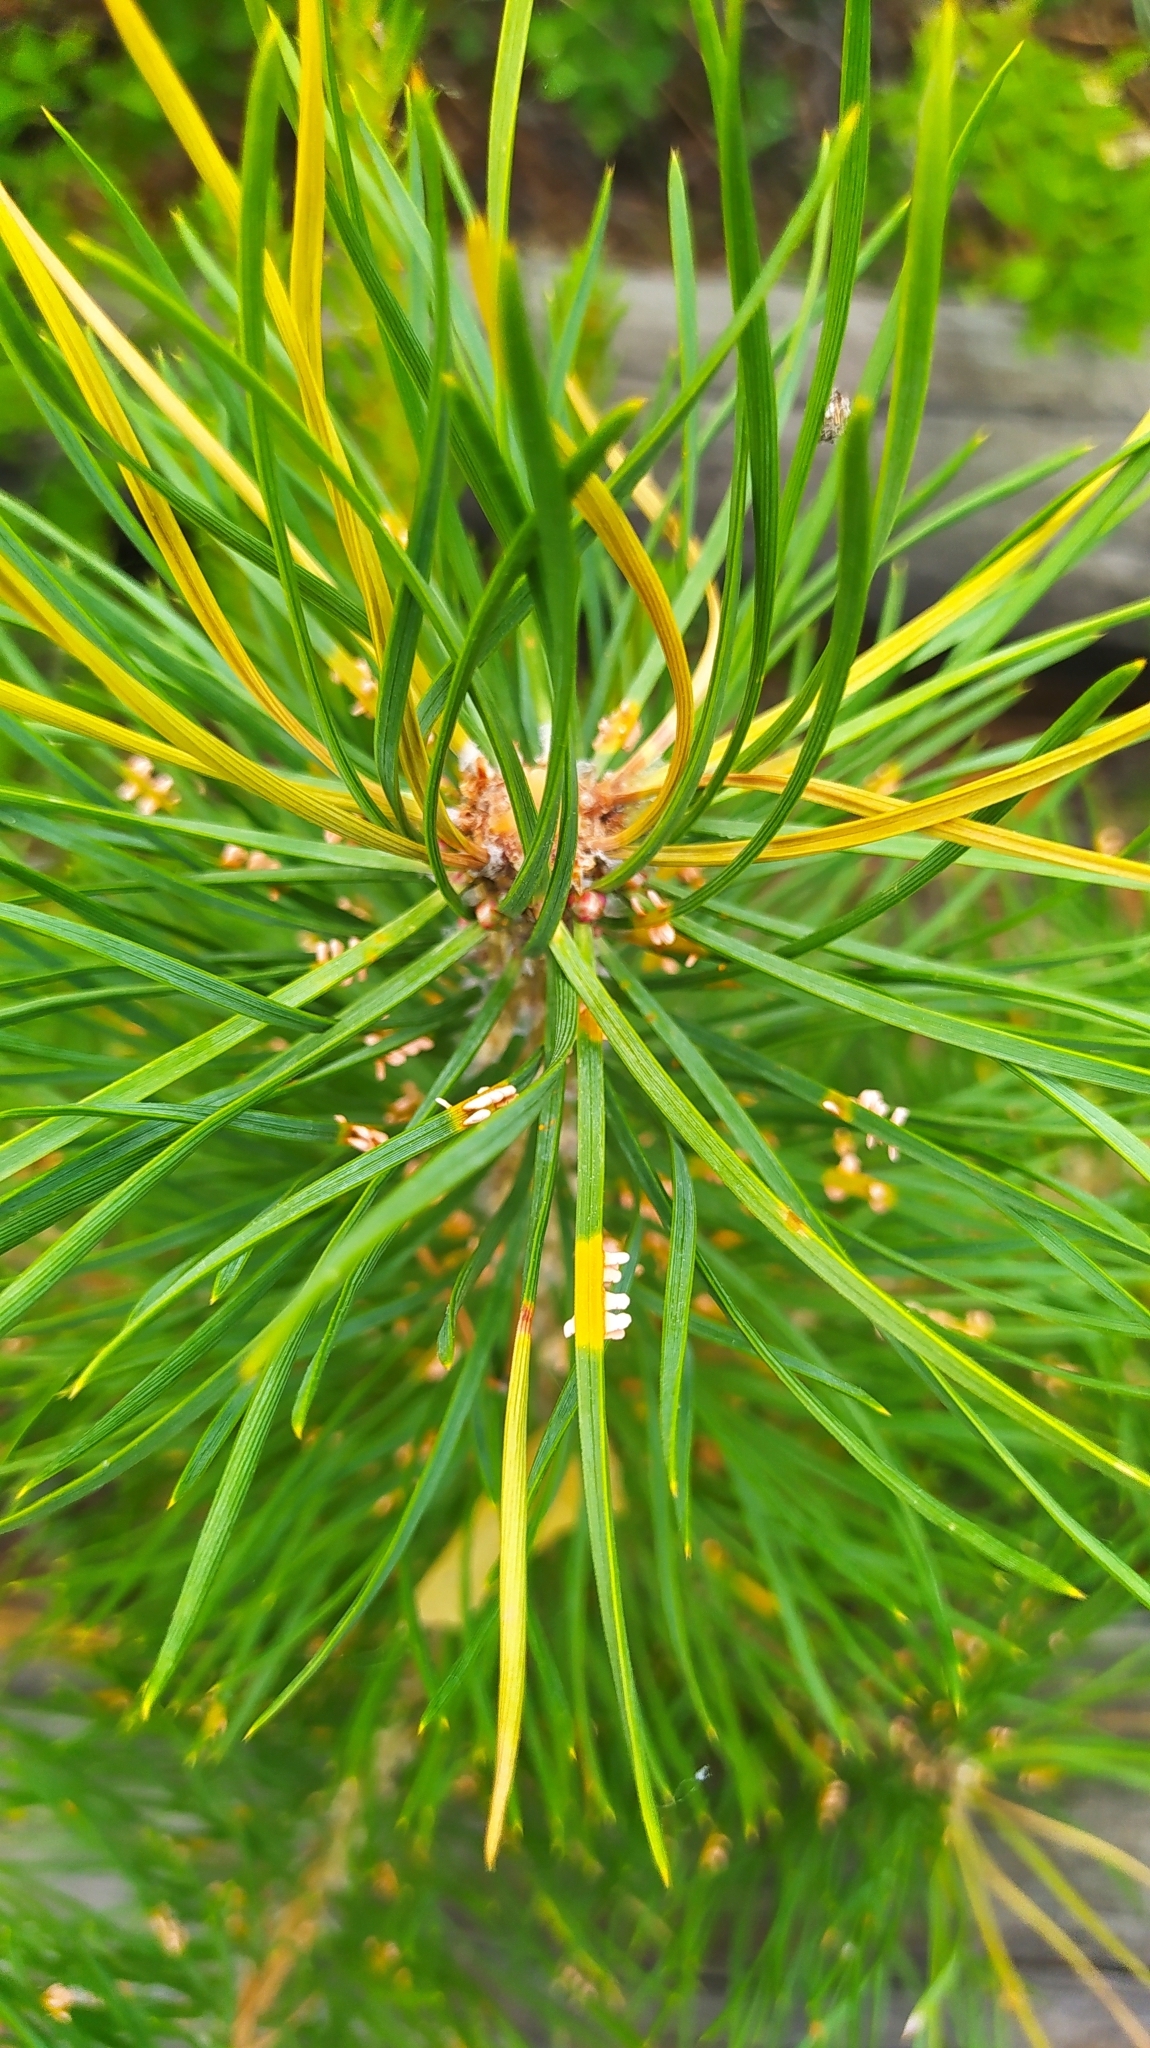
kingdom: Plantae
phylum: Tracheophyta
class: Pinopsida
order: Pinales
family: Pinaceae
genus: Pinus
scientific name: Pinus sylvestris
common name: Scots pine
